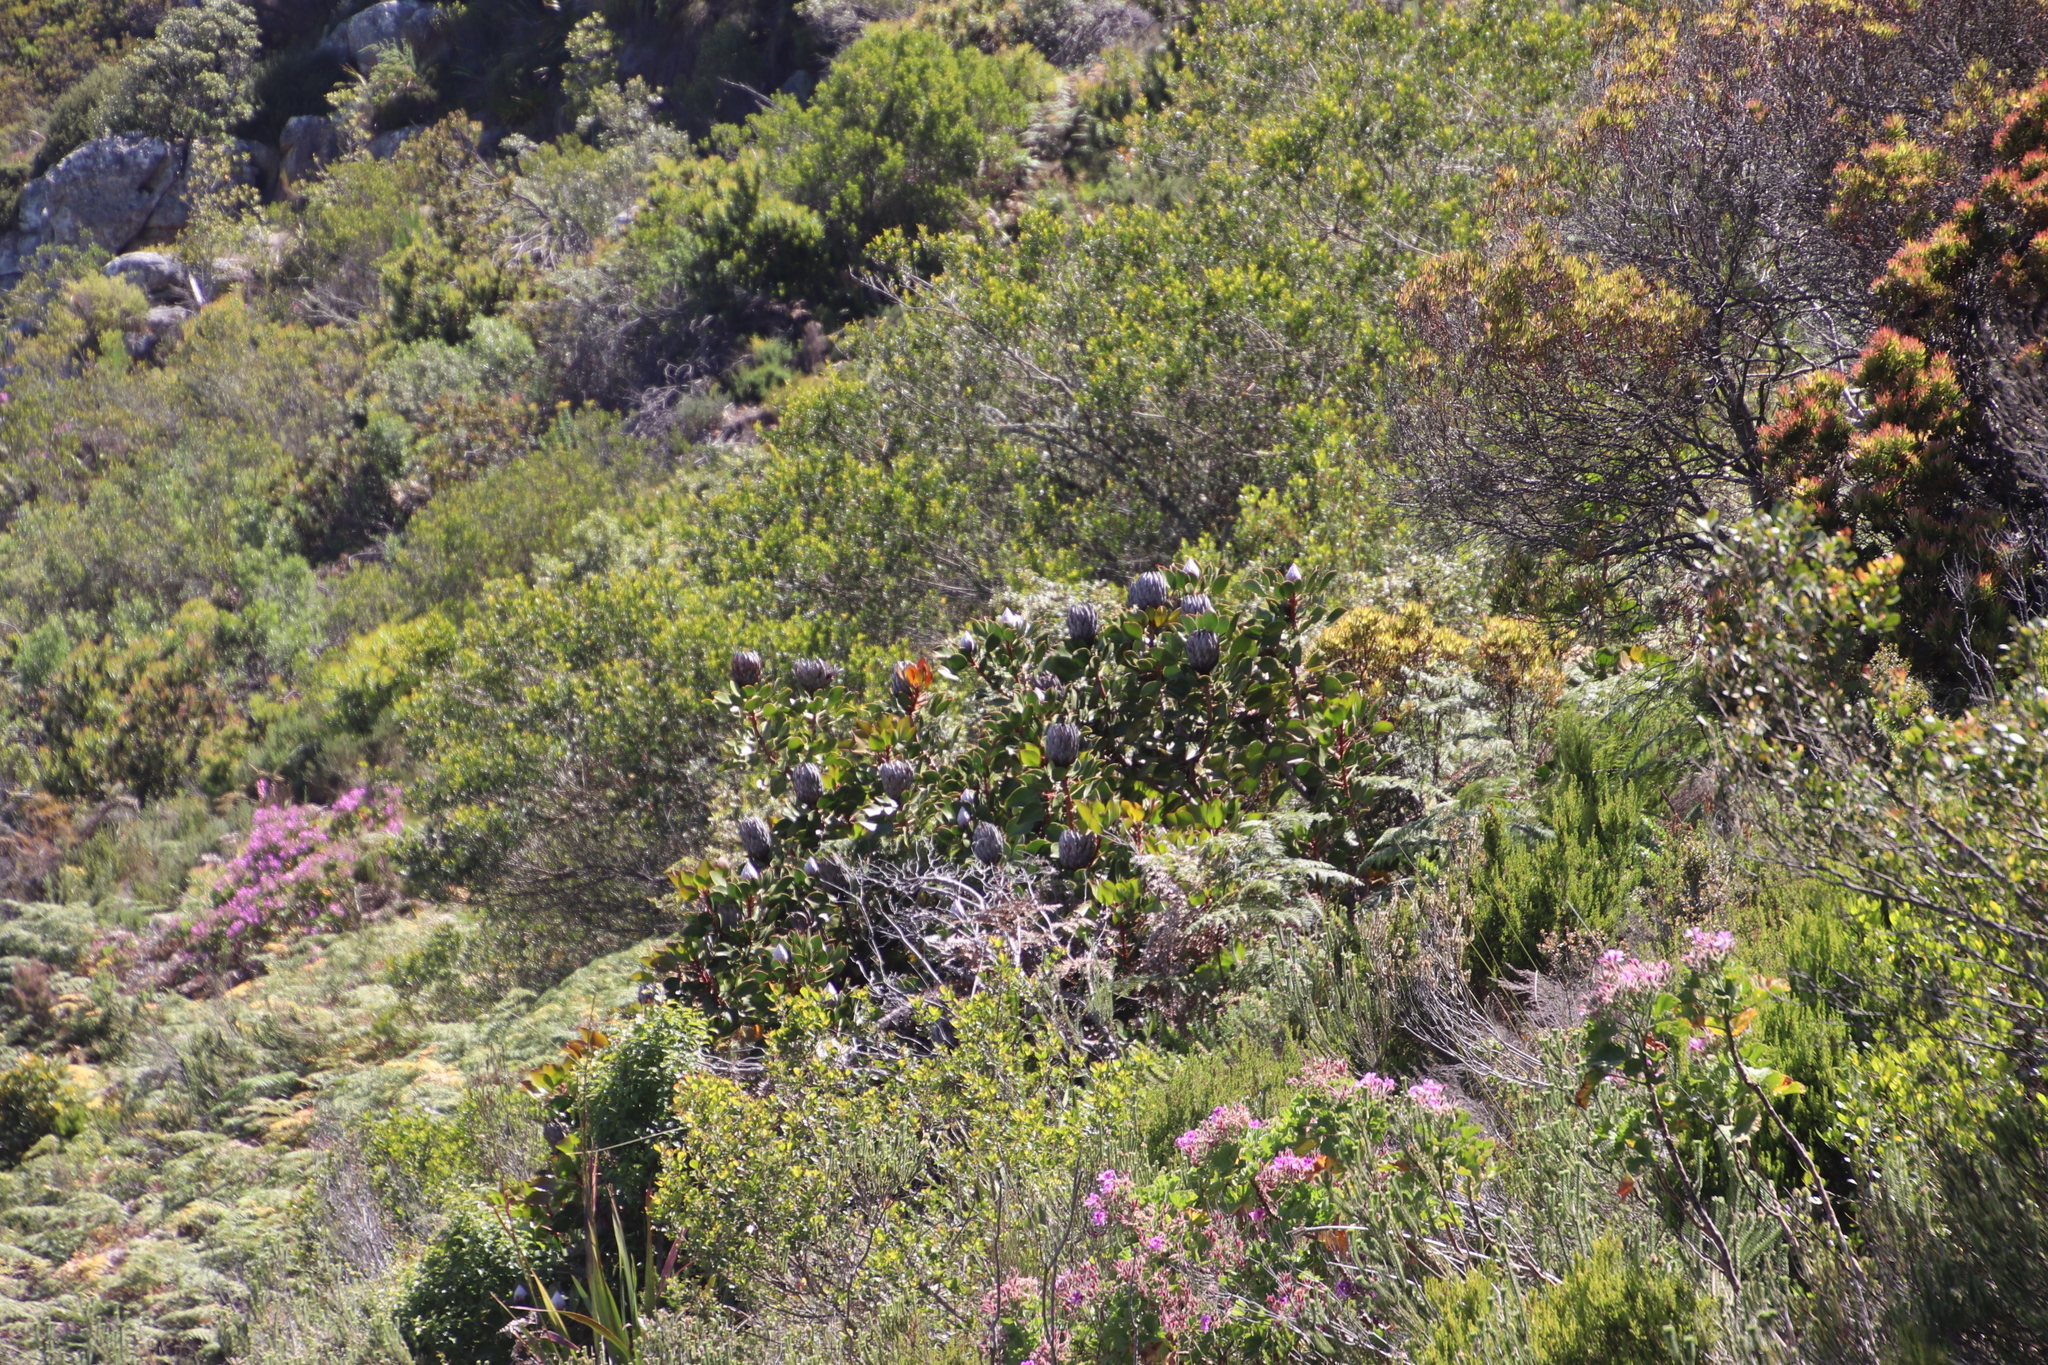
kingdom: Plantae
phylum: Tracheophyta
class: Magnoliopsida
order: Proteales
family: Proteaceae
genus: Protea
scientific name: Protea cynaroides
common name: King protea
